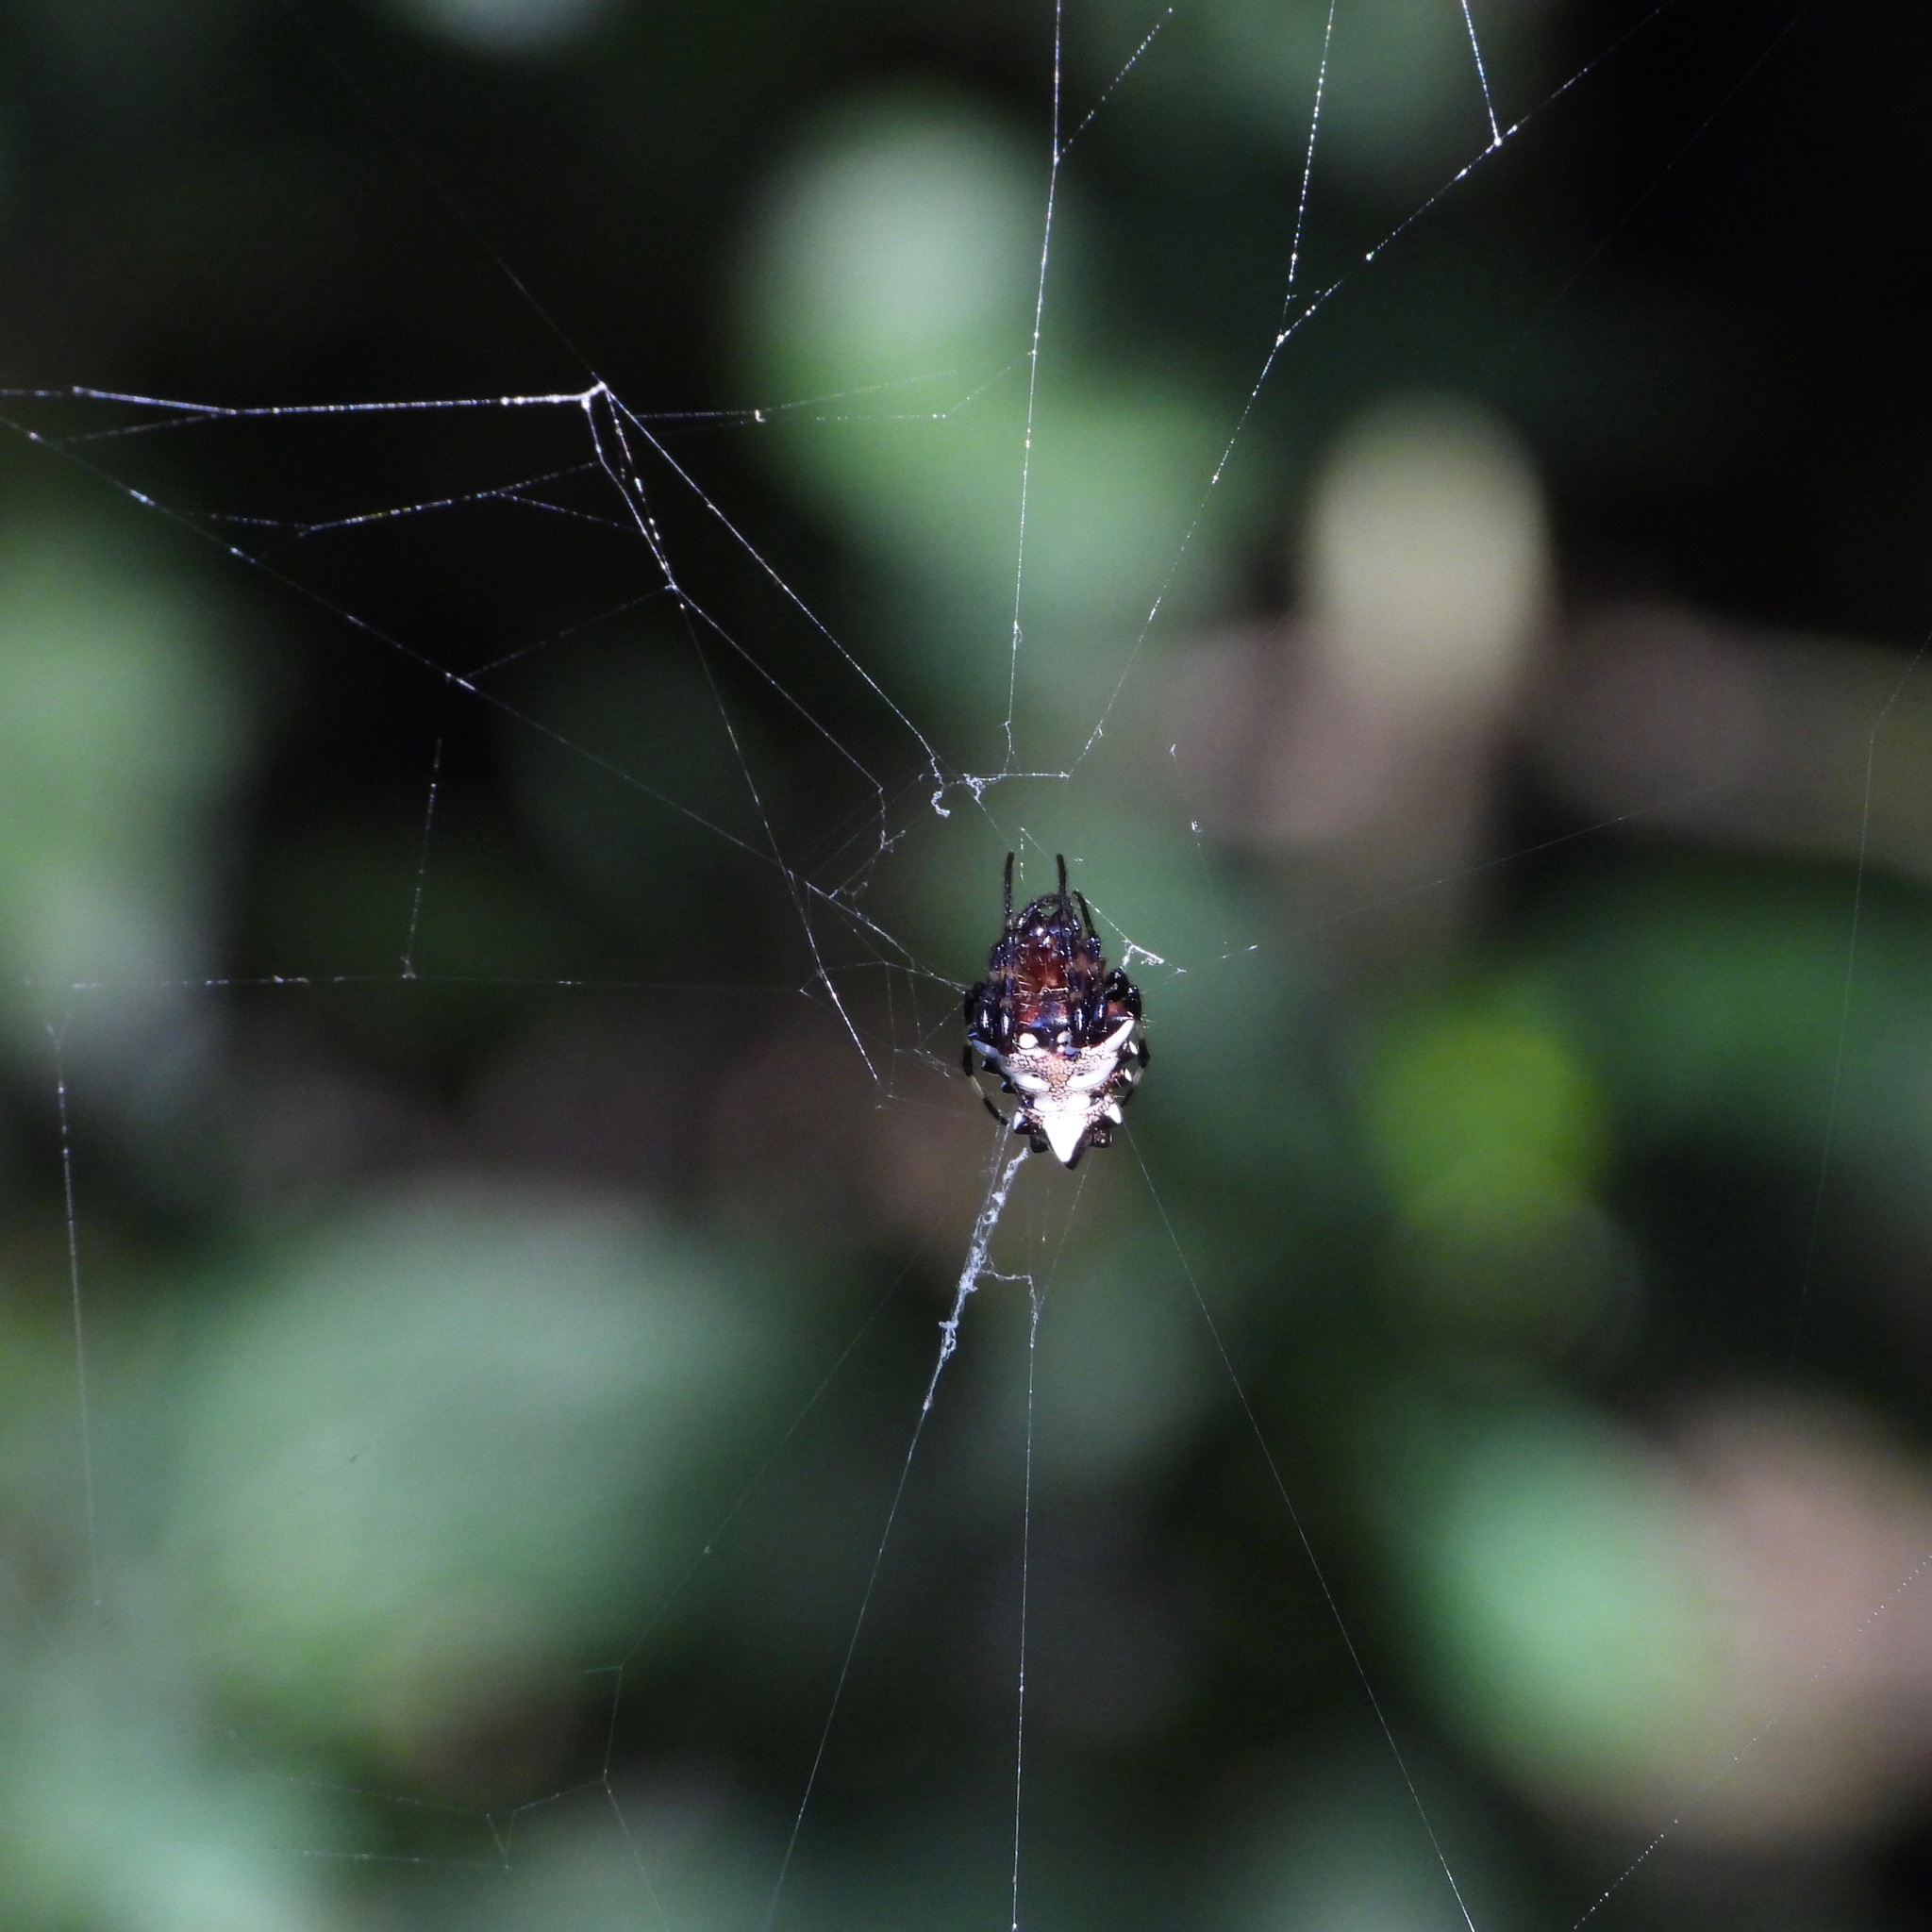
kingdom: Animalia
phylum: Arthropoda
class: Arachnida
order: Araneae
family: Araneidae
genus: Verrucosa
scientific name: Verrucosa arenata
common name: Orb weavers
